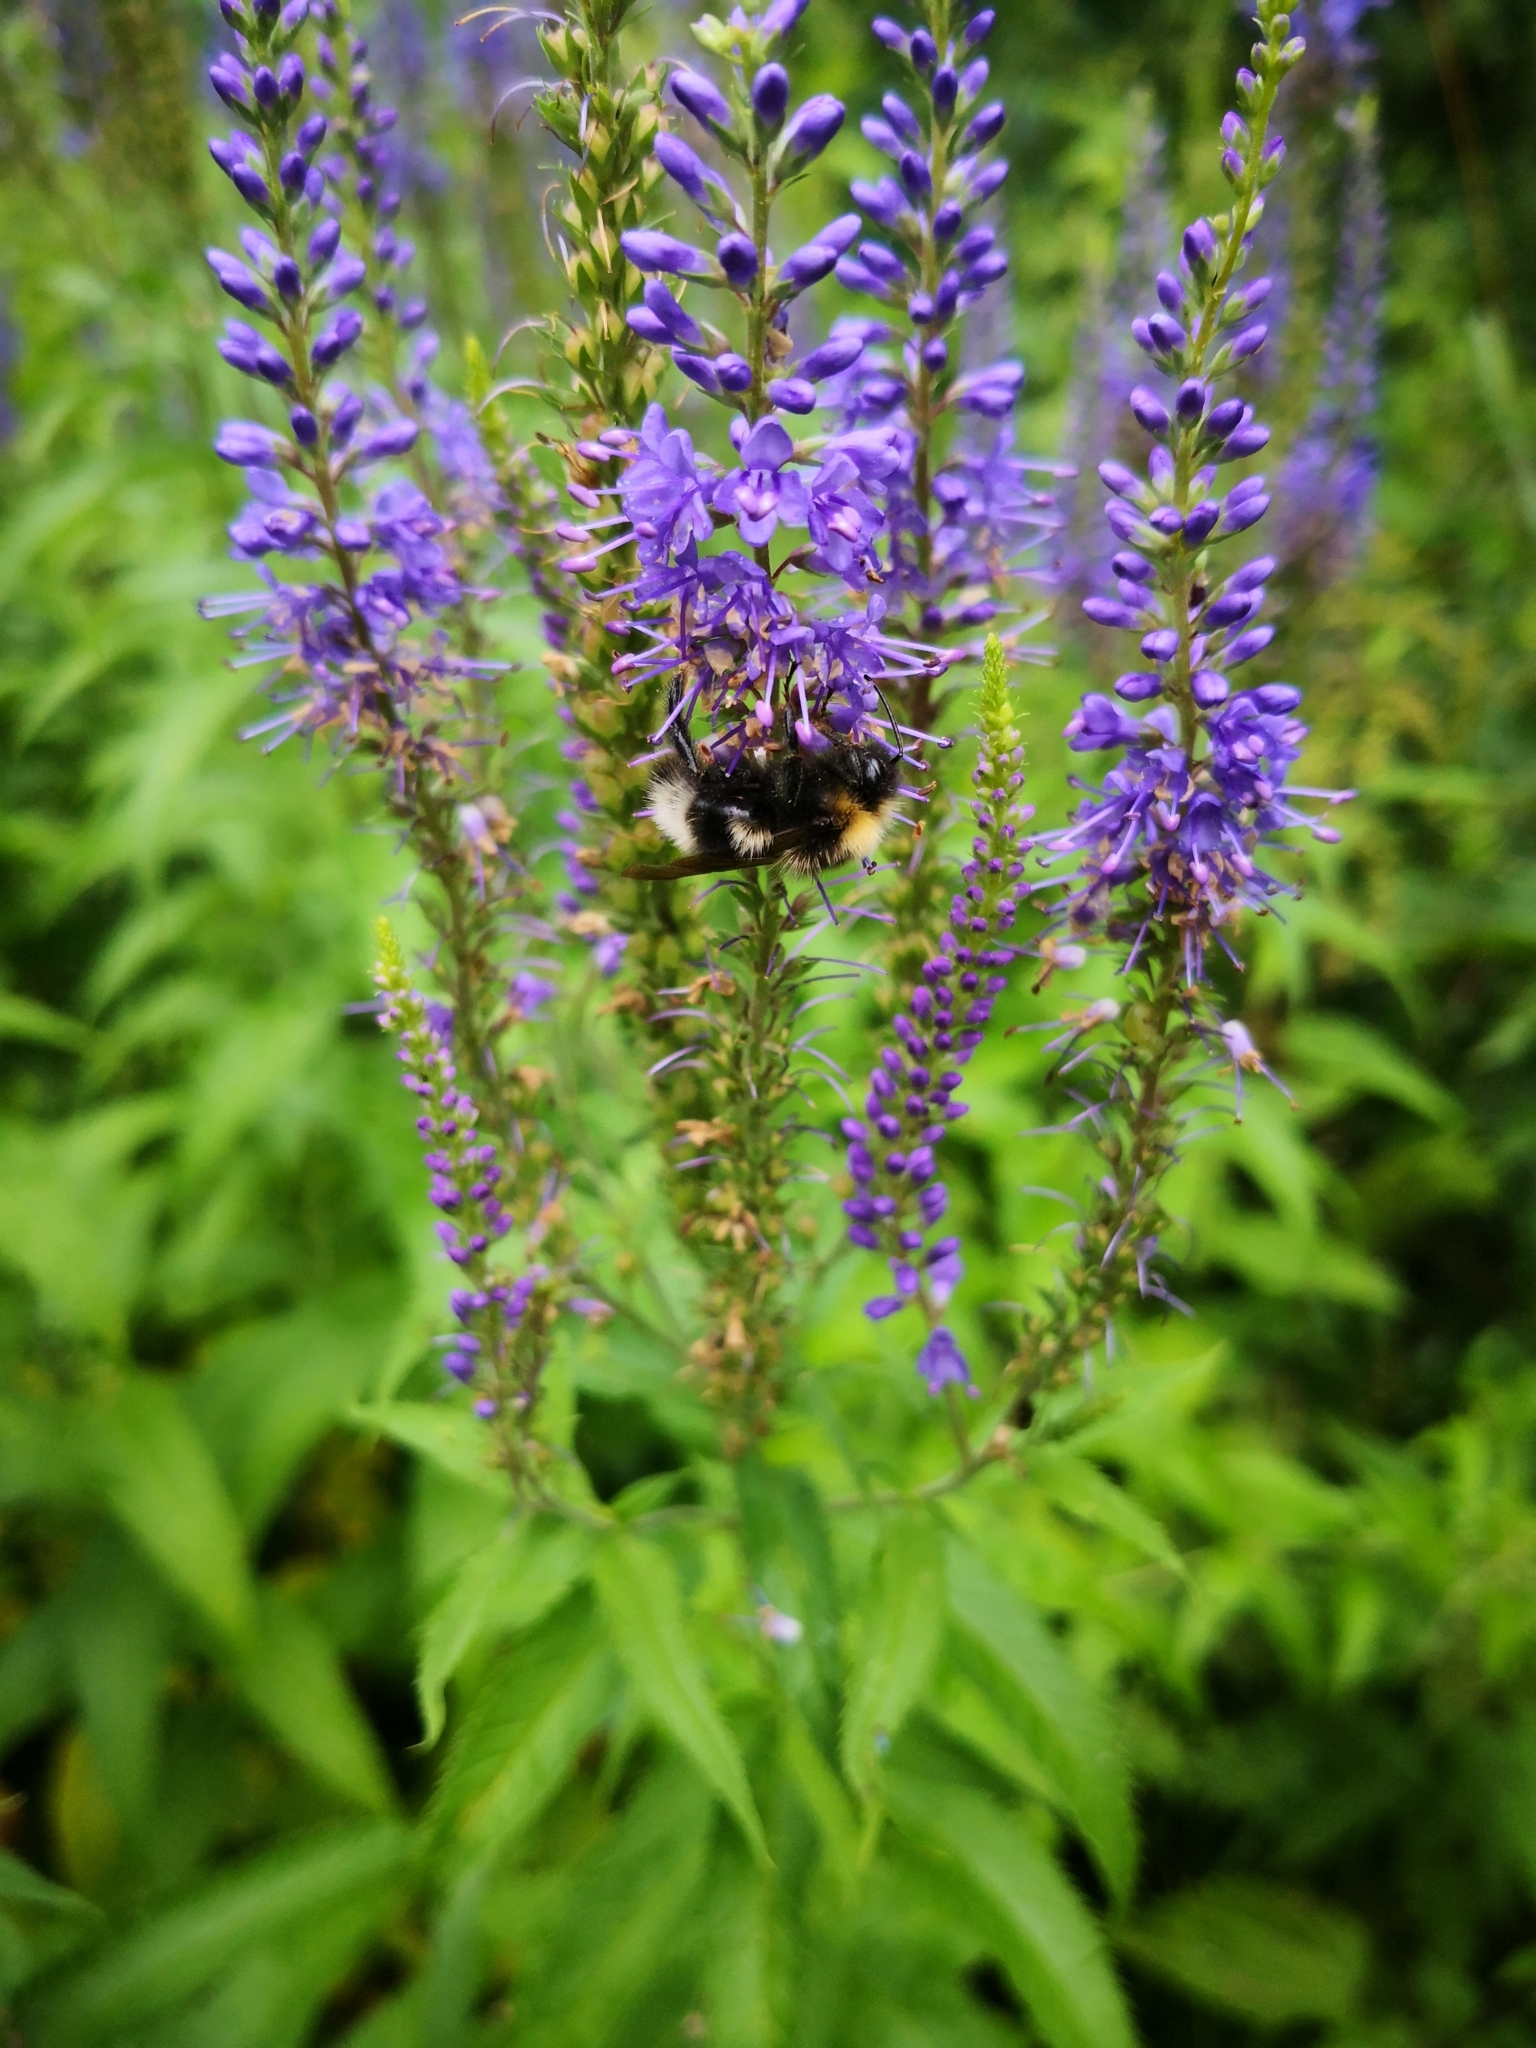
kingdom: Plantae
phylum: Tracheophyta
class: Magnoliopsida
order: Lamiales
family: Plantaginaceae
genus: Veronica
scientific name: Veronica longifolia
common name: Garden speedwell
